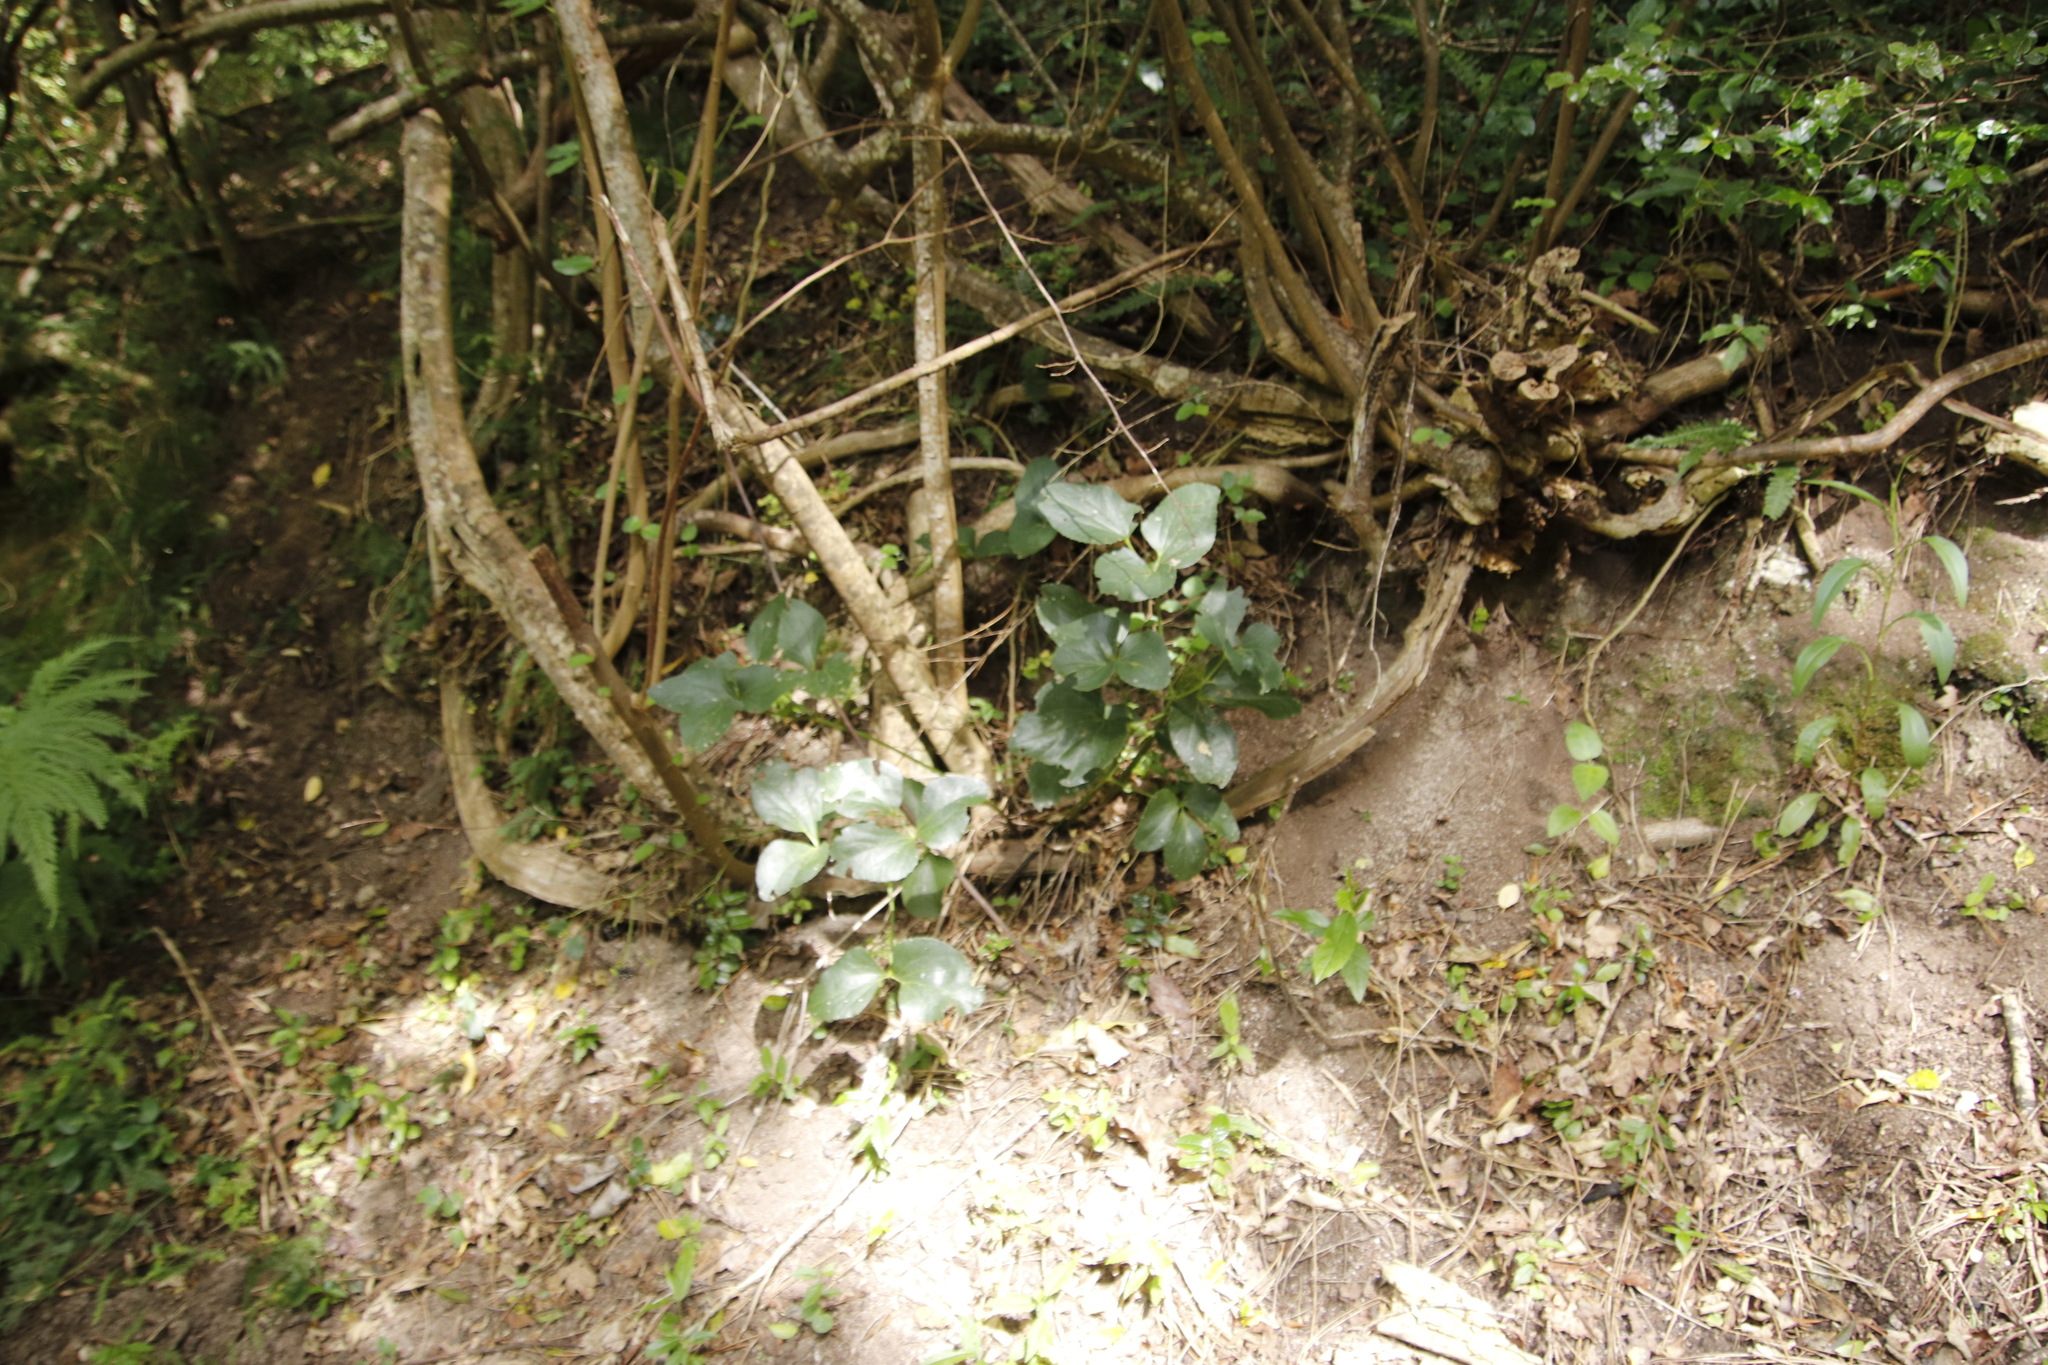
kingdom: Plantae
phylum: Tracheophyta
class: Magnoliopsida
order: Ranunculales
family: Ranunculaceae
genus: Knowltonia
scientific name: Knowltonia vesicatoria
